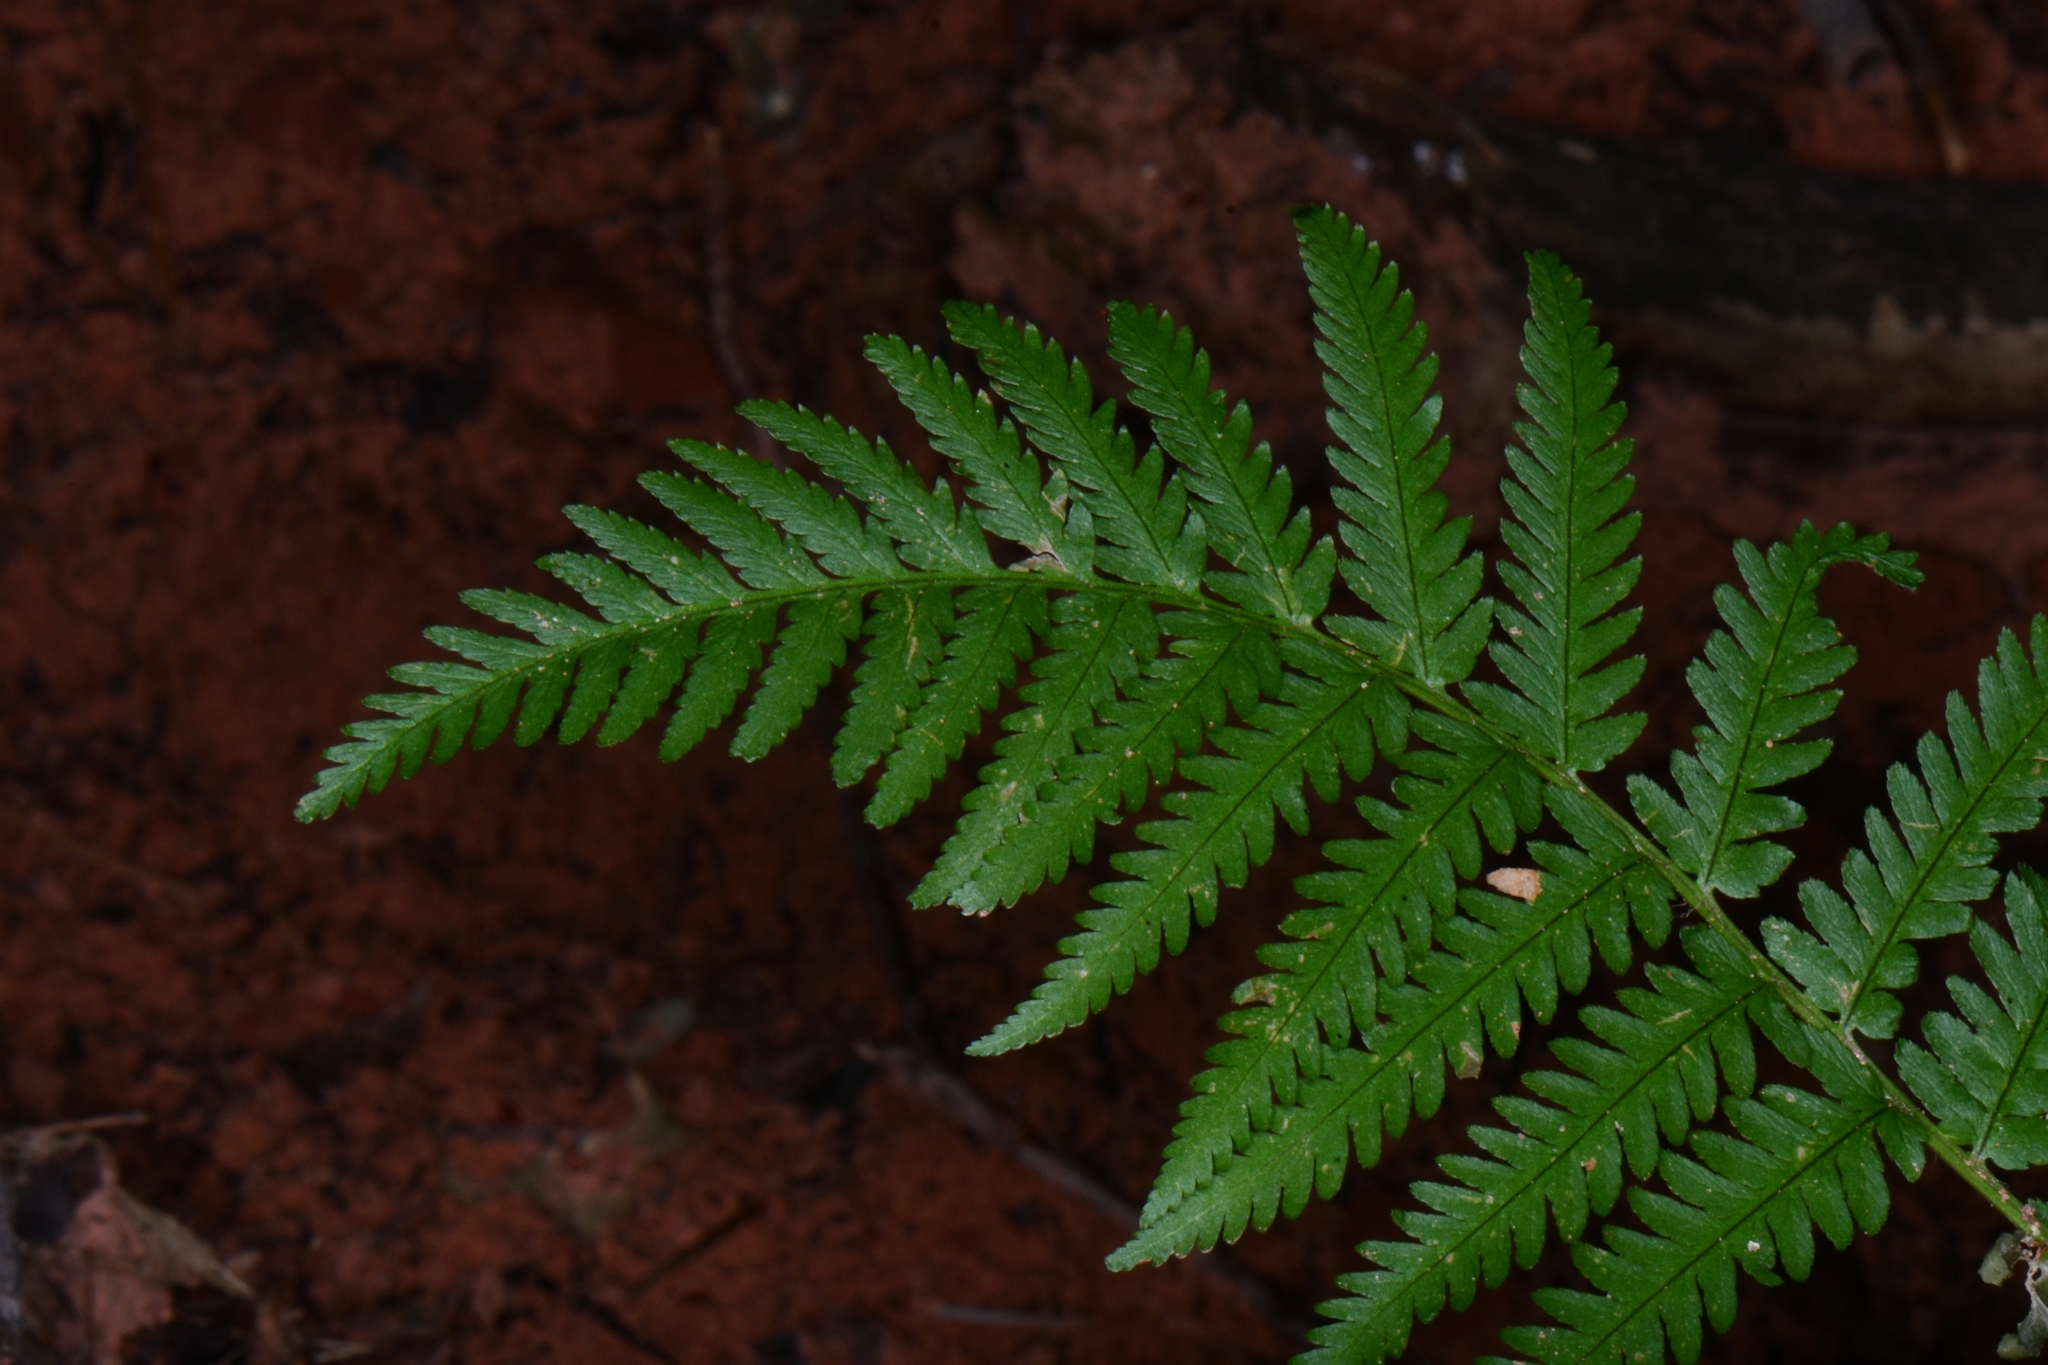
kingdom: Plantae
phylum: Tracheophyta
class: Polypodiopsida
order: Polypodiales
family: Dryopteridaceae
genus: Dryopteris
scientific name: Dryopteris filix-mas
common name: Male fern
